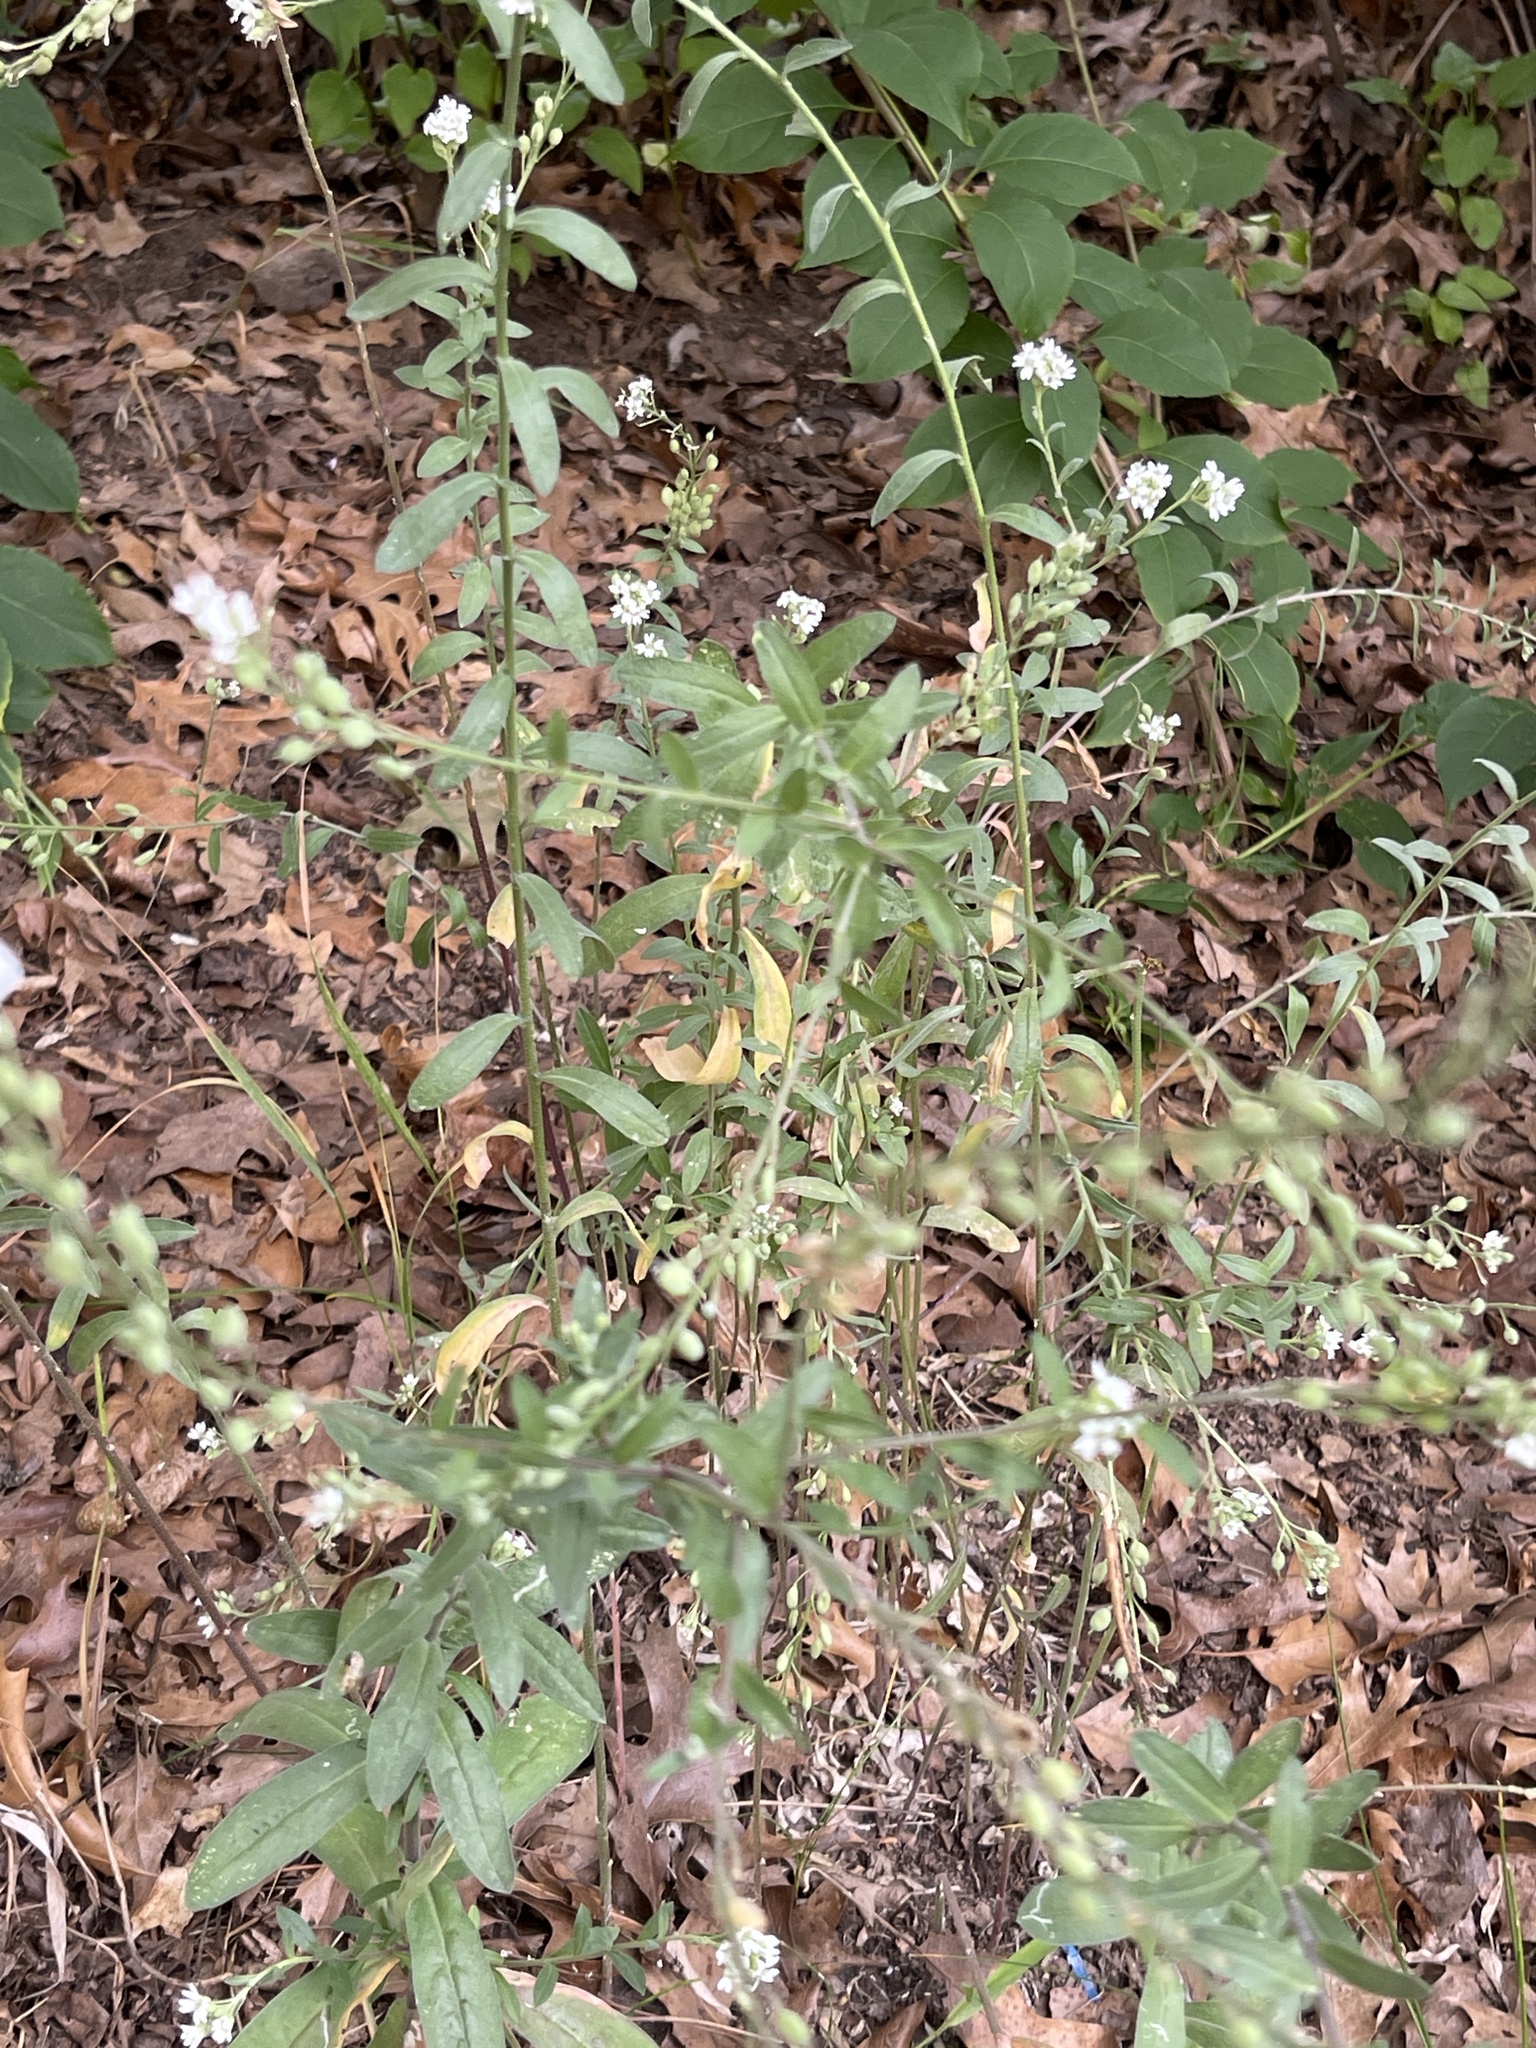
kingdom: Plantae
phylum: Tracheophyta
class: Magnoliopsida
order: Brassicales
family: Brassicaceae
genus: Berteroa
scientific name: Berteroa incana
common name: Hoary alison
